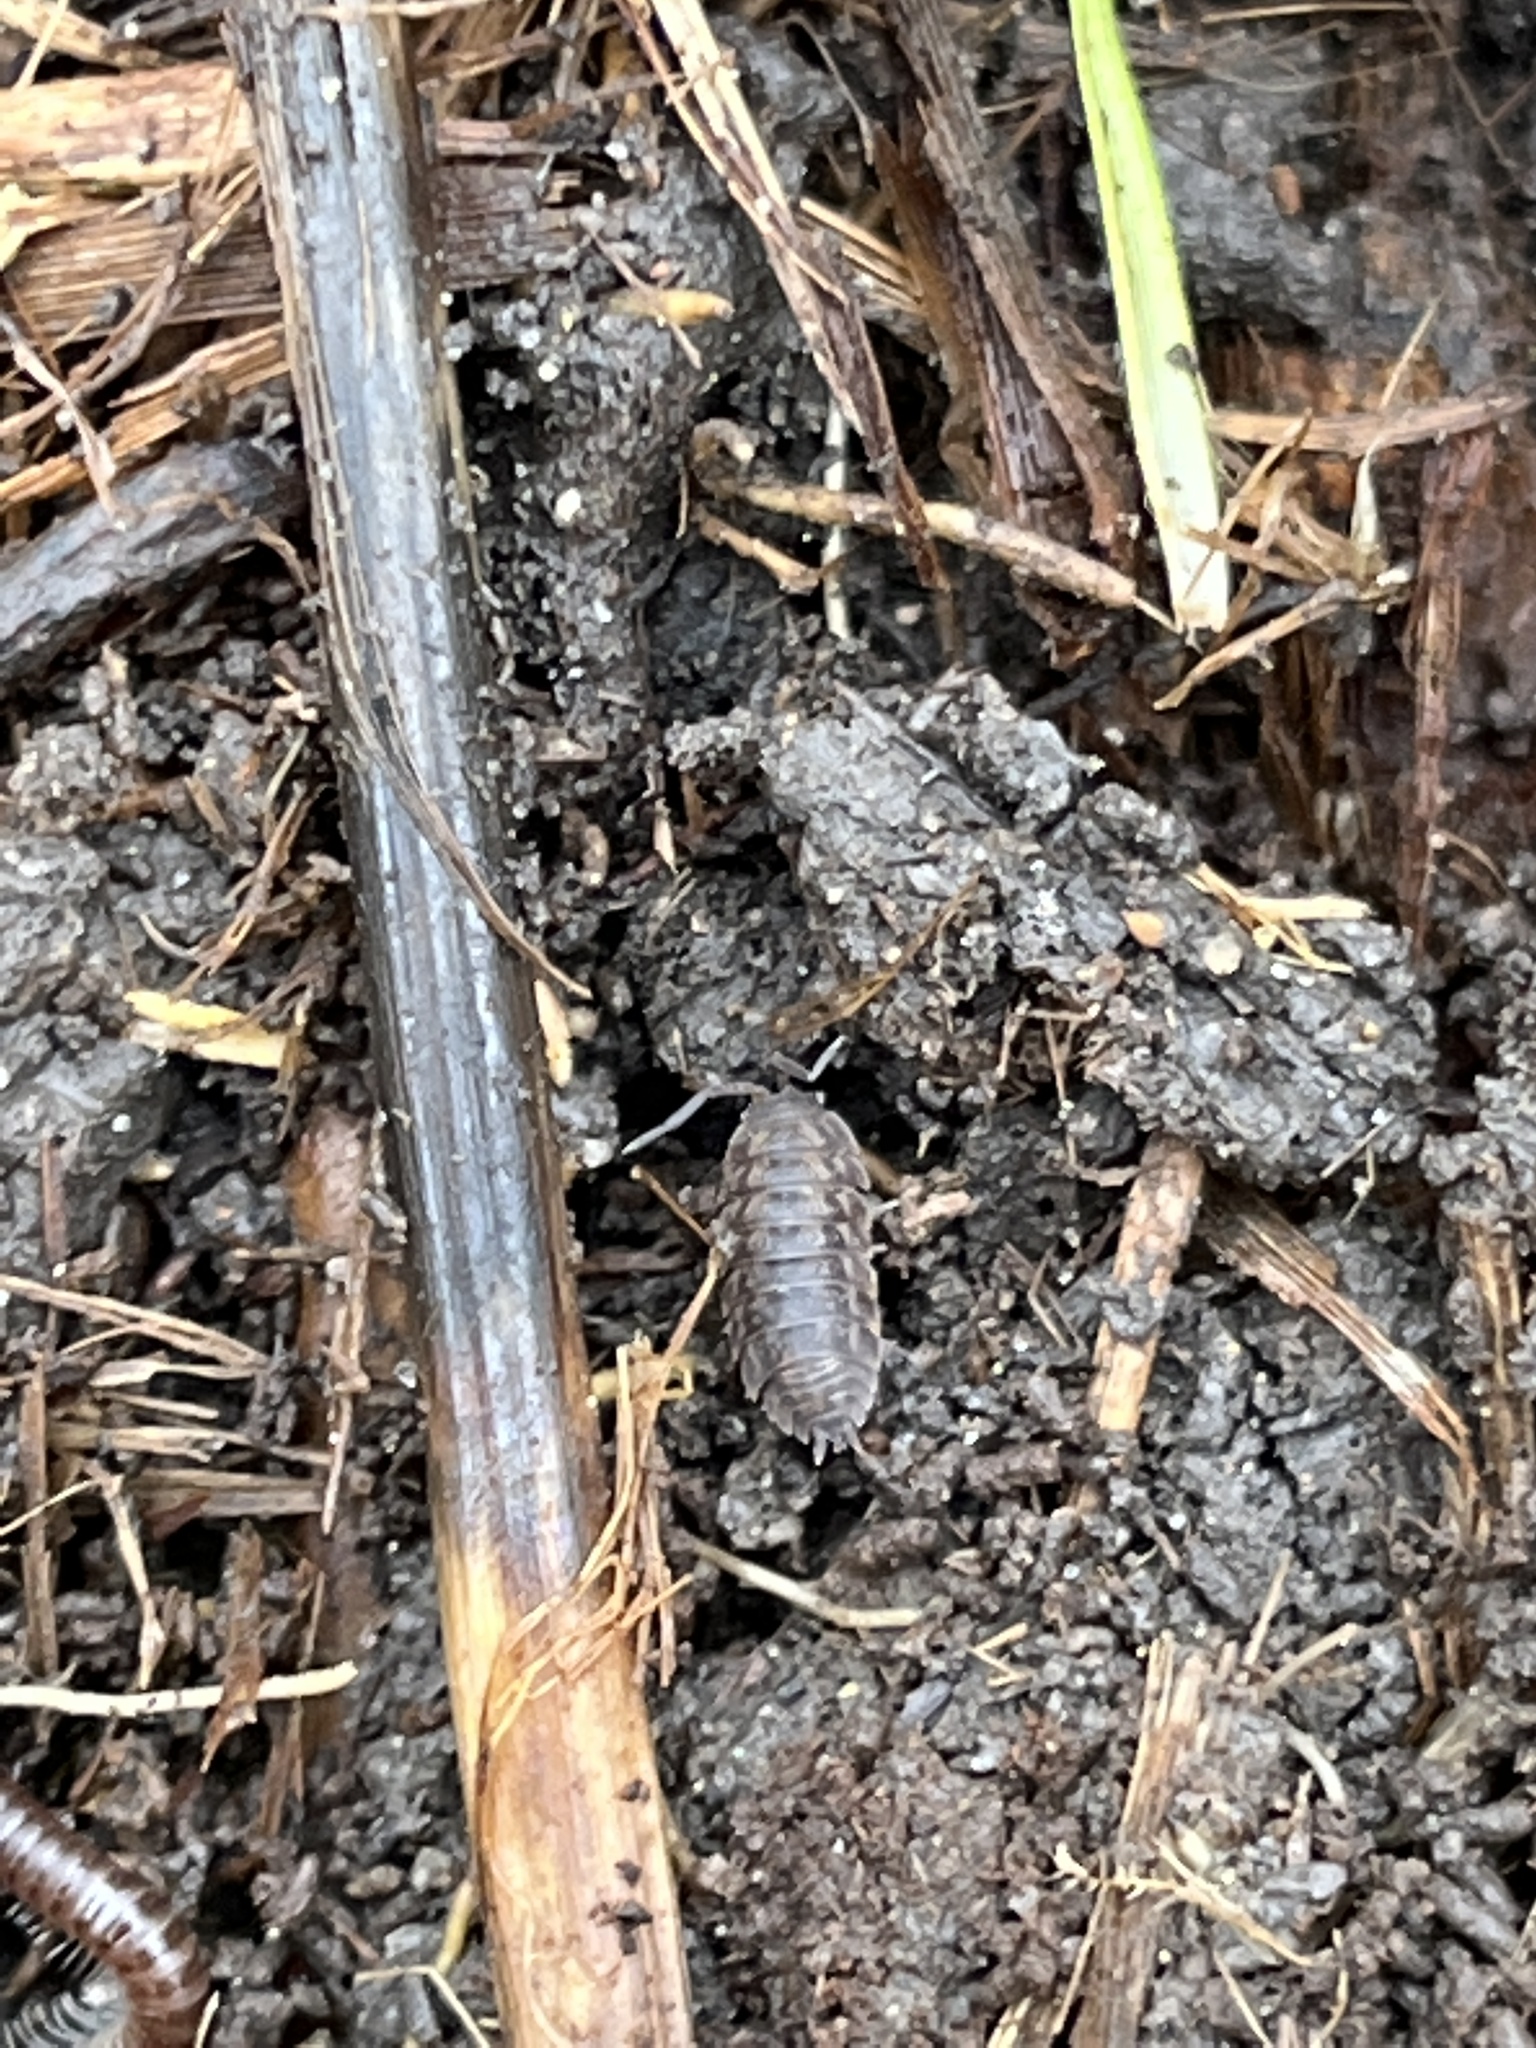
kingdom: Animalia
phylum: Arthropoda
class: Malacostraca
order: Isopoda
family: Trachelipodidae
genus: Trachelipus
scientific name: Trachelipus rathkii
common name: Isopod
